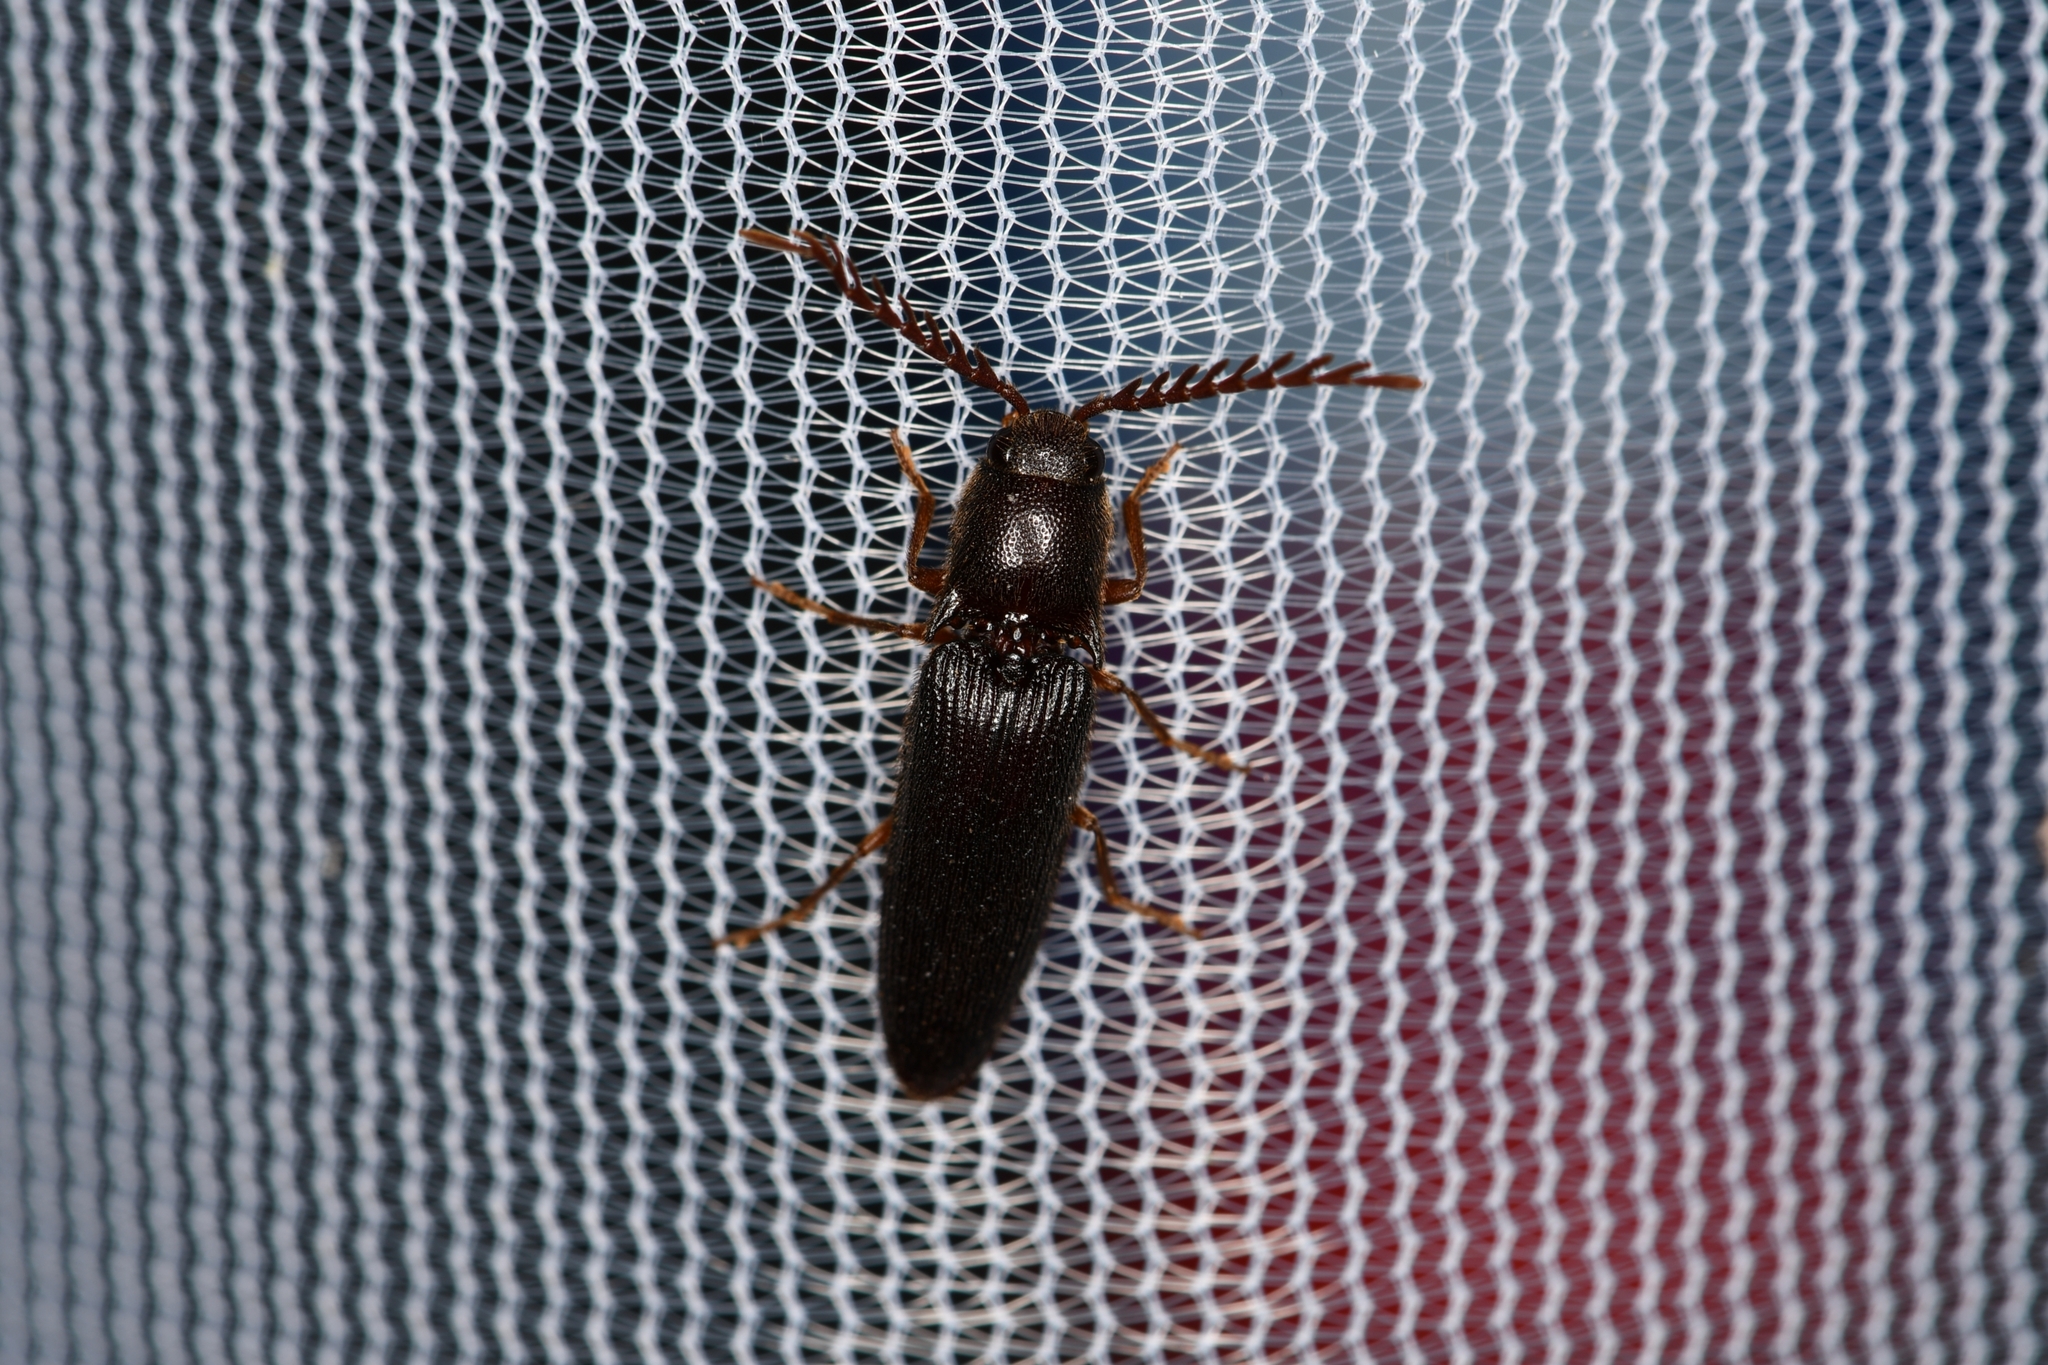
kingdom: Animalia
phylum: Arthropoda
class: Insecta
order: Coleoptera
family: Elateridae
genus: Dicrepidius
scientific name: Dicrepidius corvinus
